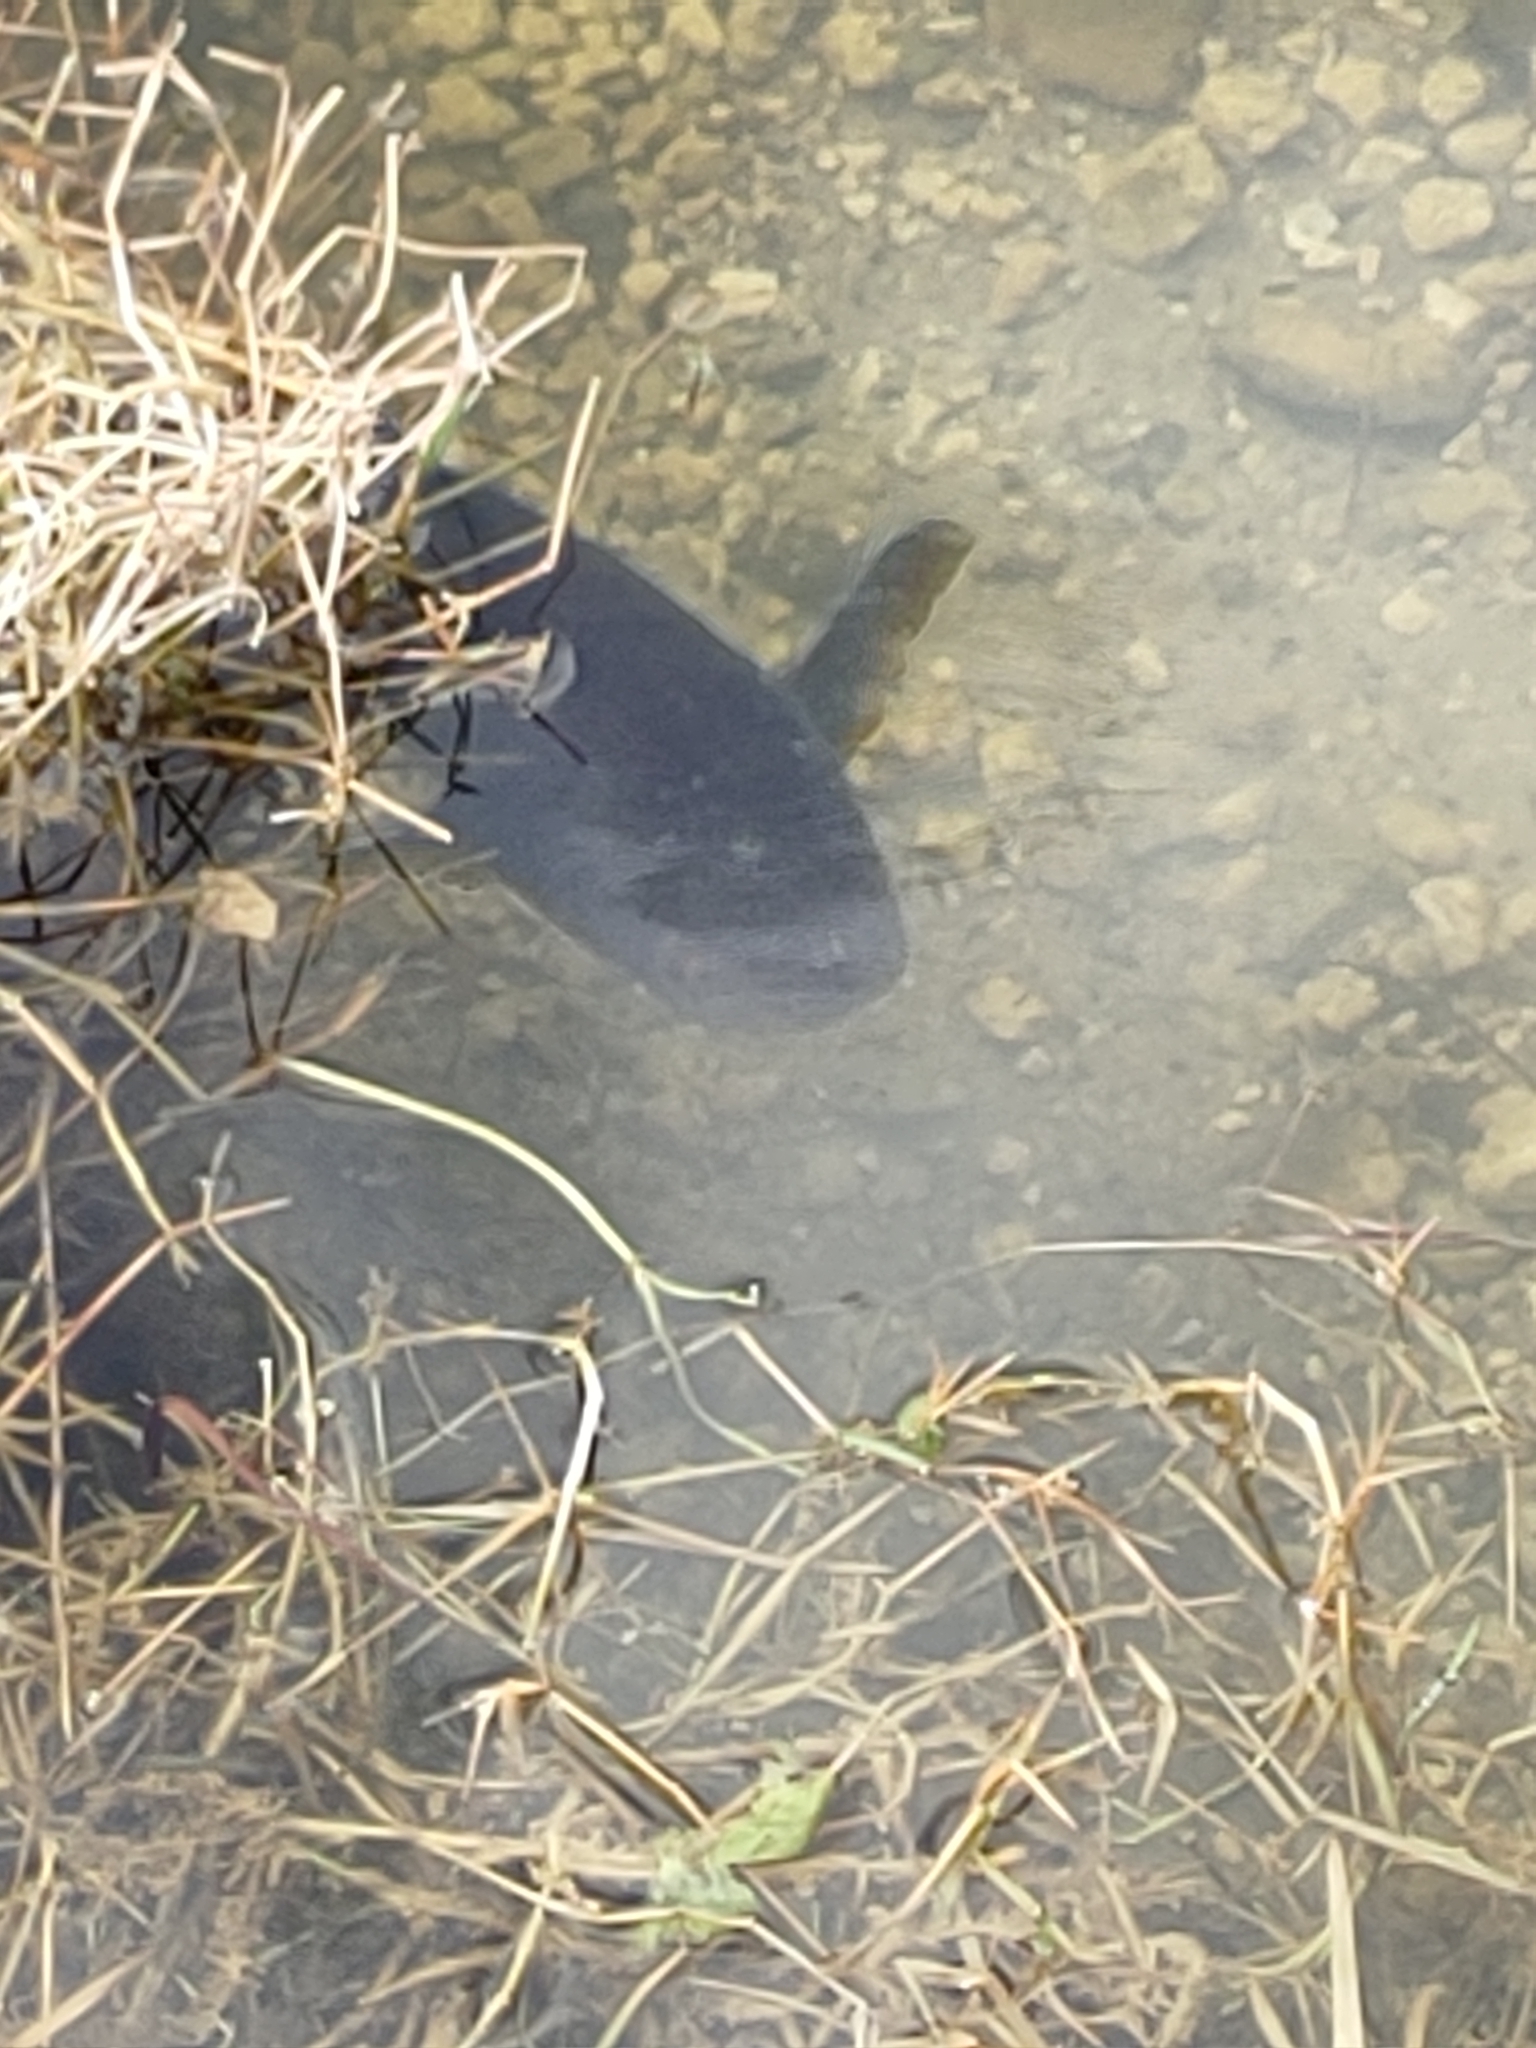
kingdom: Animalia
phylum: Chordata
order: Perciformes
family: Channidae
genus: Channa
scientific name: Channa marulius
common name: Giant snakehead
